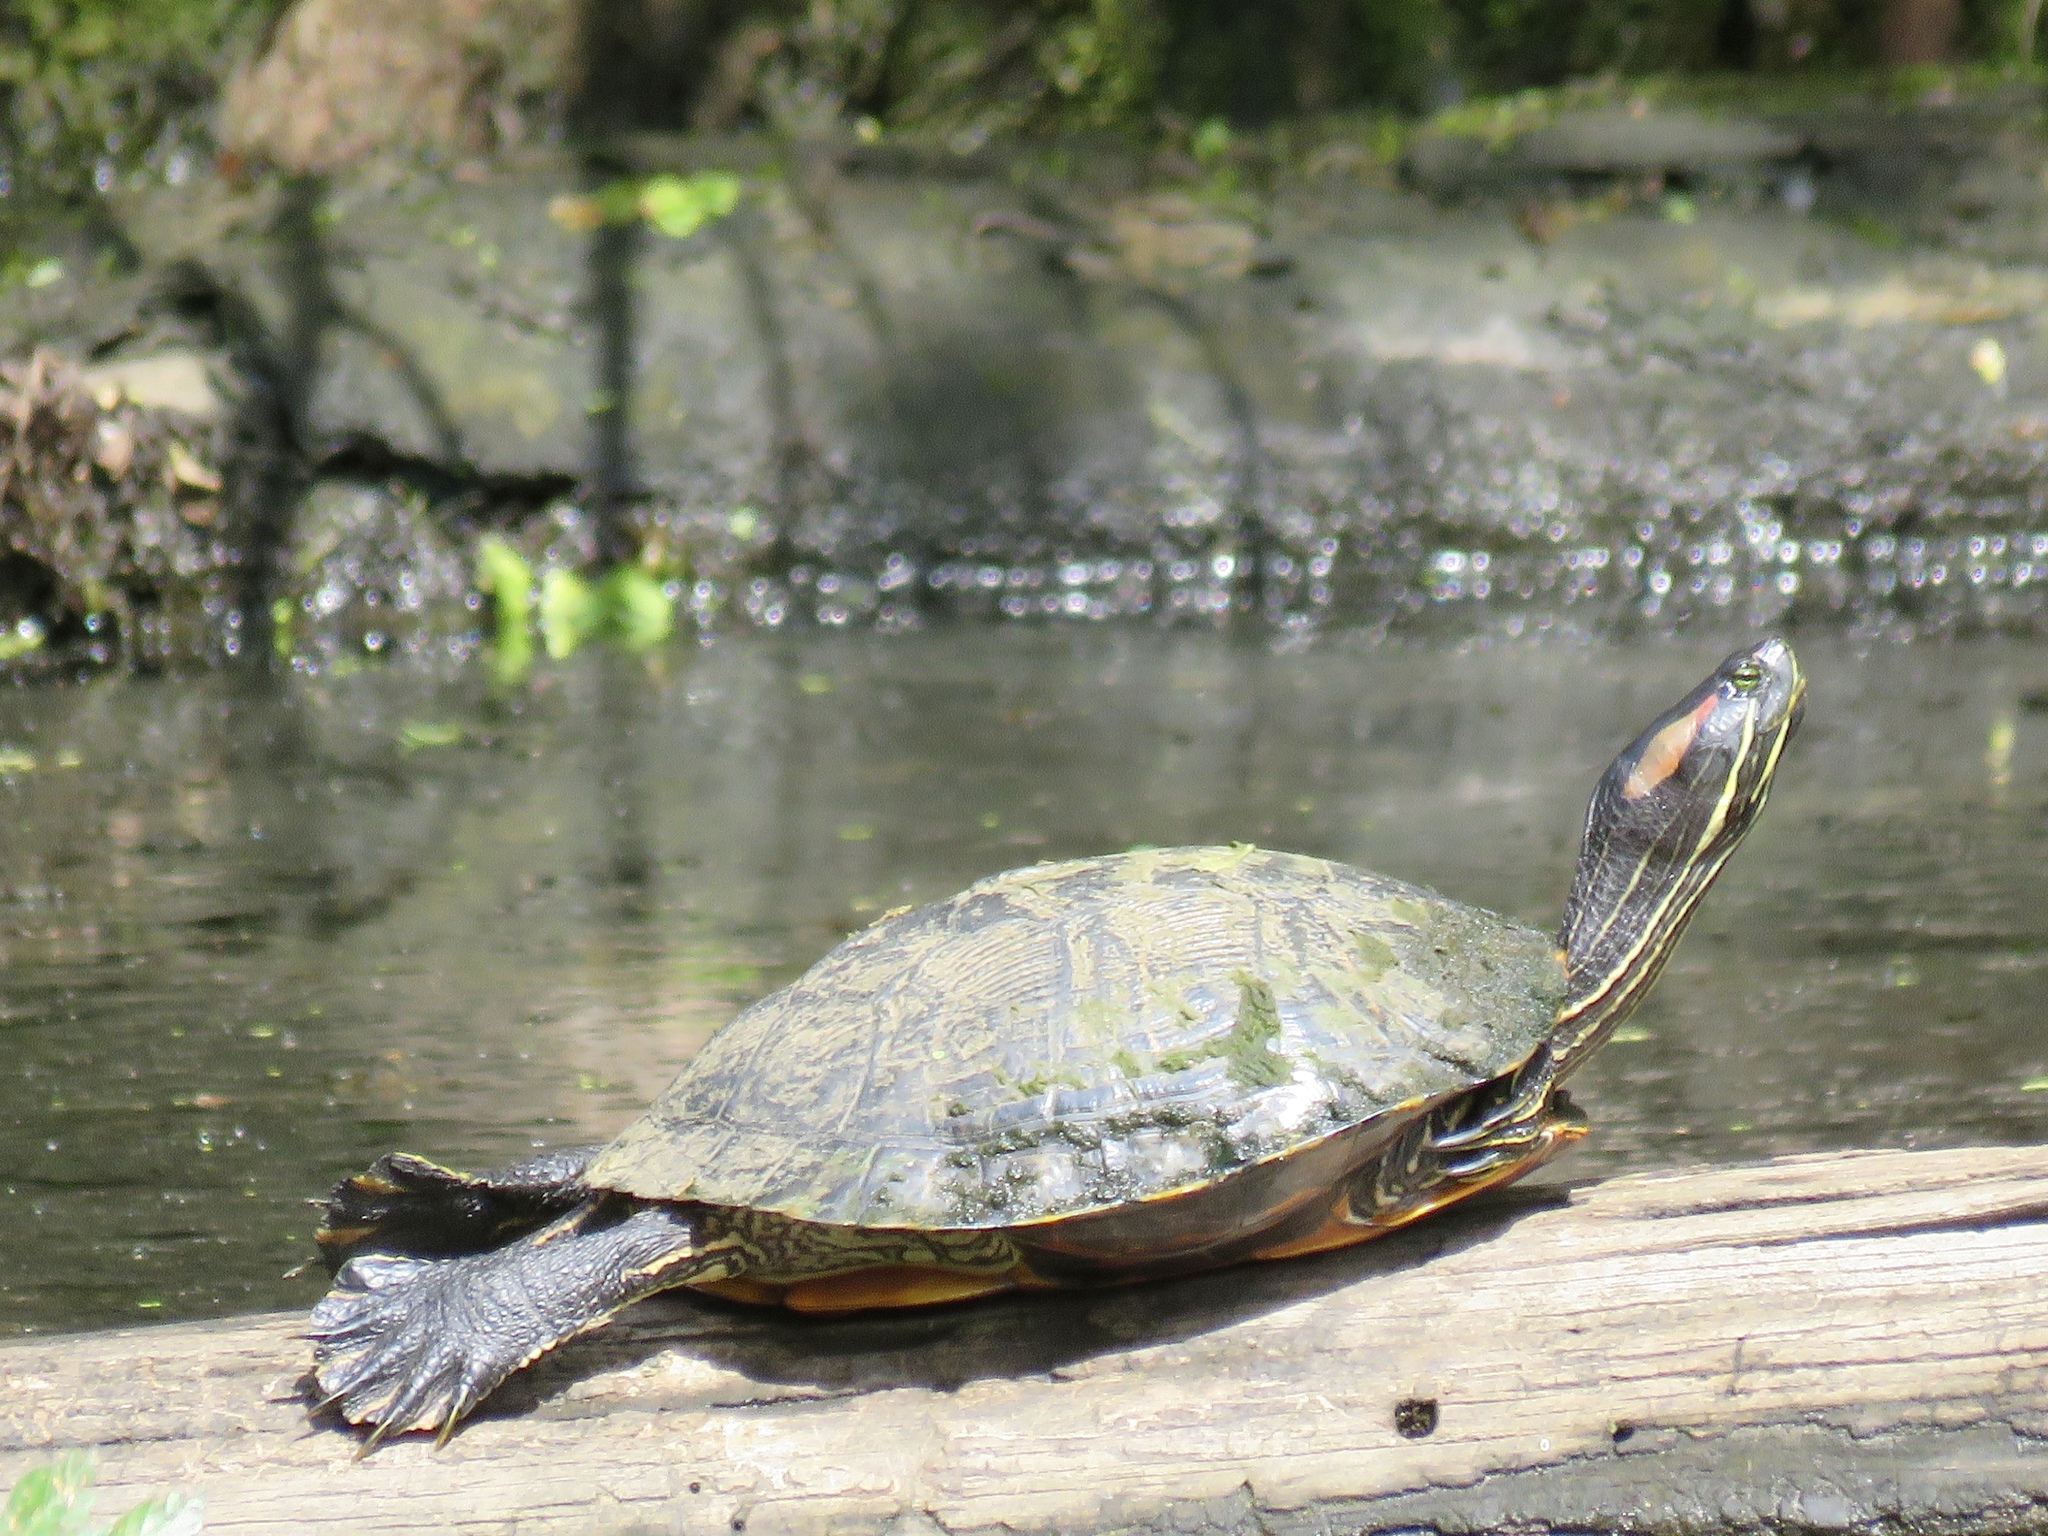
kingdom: Animalia
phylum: Chordata
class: Testudines
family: Emydidae
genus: Trachemys
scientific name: Trachemys scripta
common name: Slider
